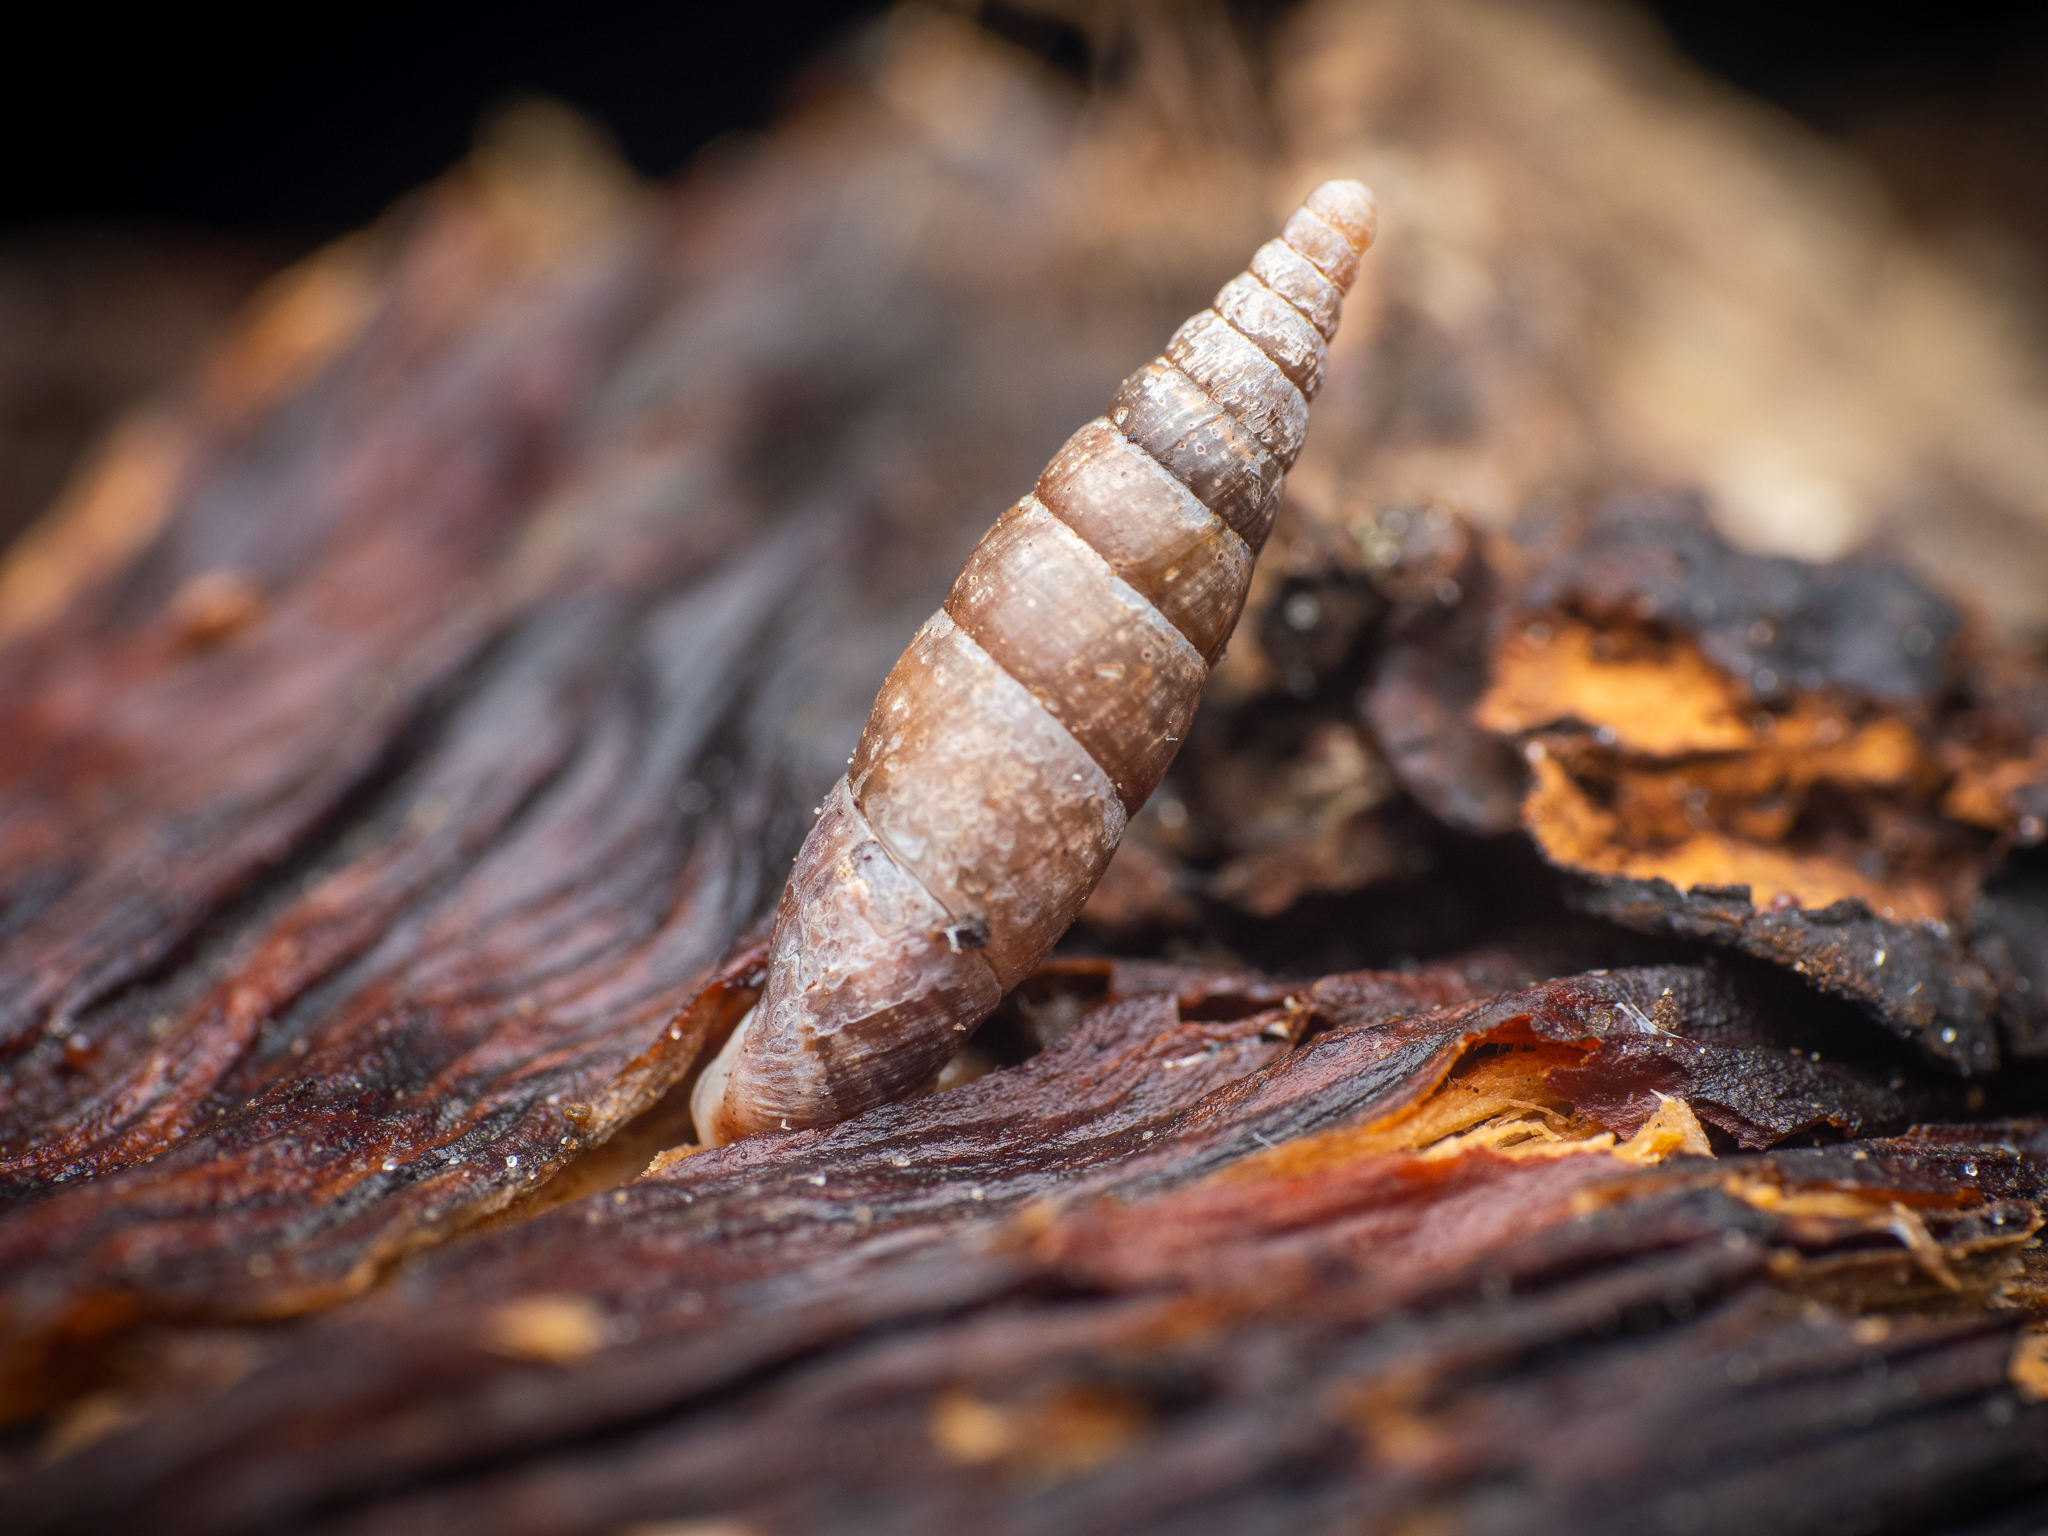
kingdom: Animalia
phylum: Mollusca
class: Gastropoda
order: Stylommatophora
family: Clausiliidae
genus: Cochlodina
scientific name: Cochlodina laminata
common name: Plaited door snail
